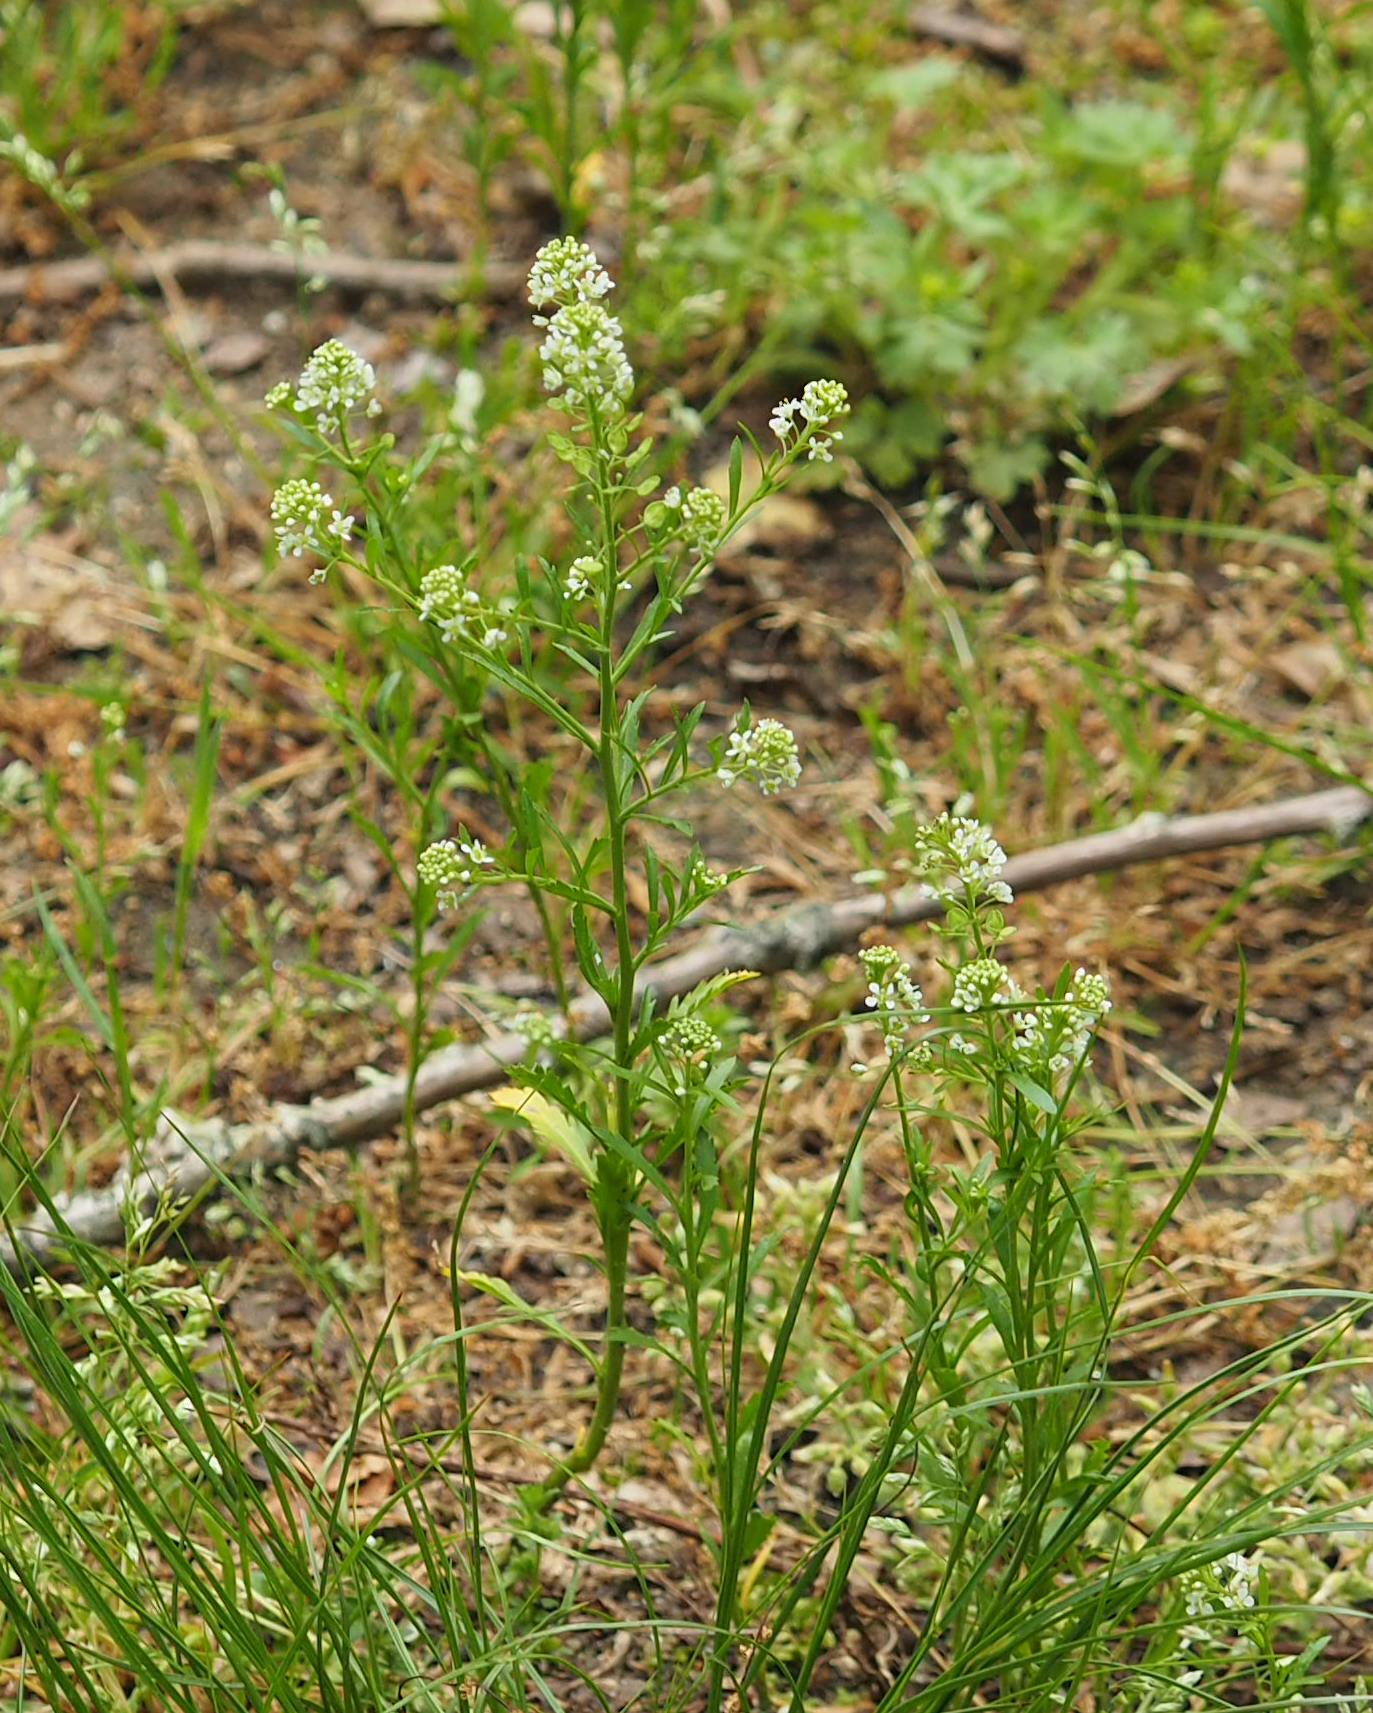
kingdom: Plantae
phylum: Tracheophyta
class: Magnoliopsida
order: Brassicales
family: Brassicaceae
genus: Lepidium
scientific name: Lepidium virginicum
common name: Least pepperwort
